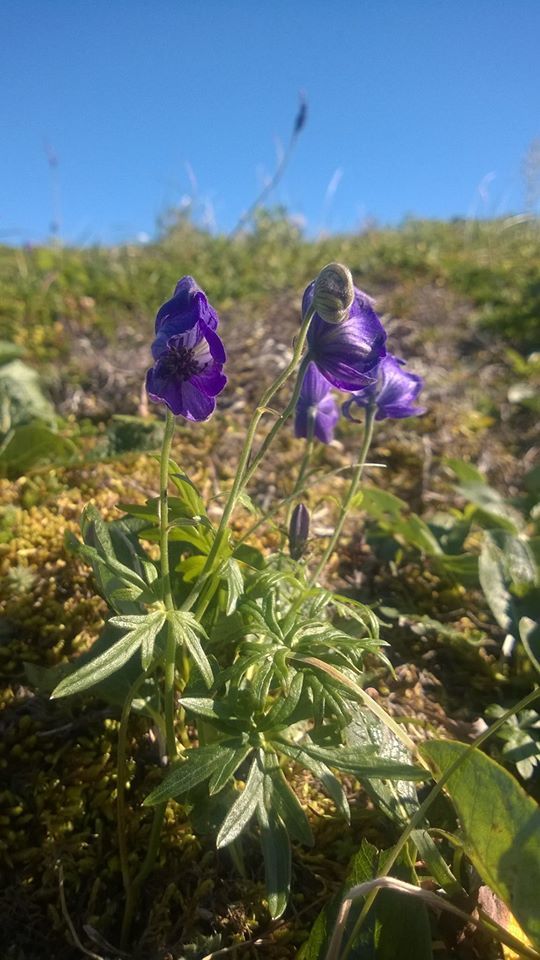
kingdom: Plantae
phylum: Tracheophyta
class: Magnoliopsida
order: Ranunculales
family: Ranunculaceae
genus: Aconitum
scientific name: Aconitum delphinifolium
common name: Larkspur-leaved monkshood
